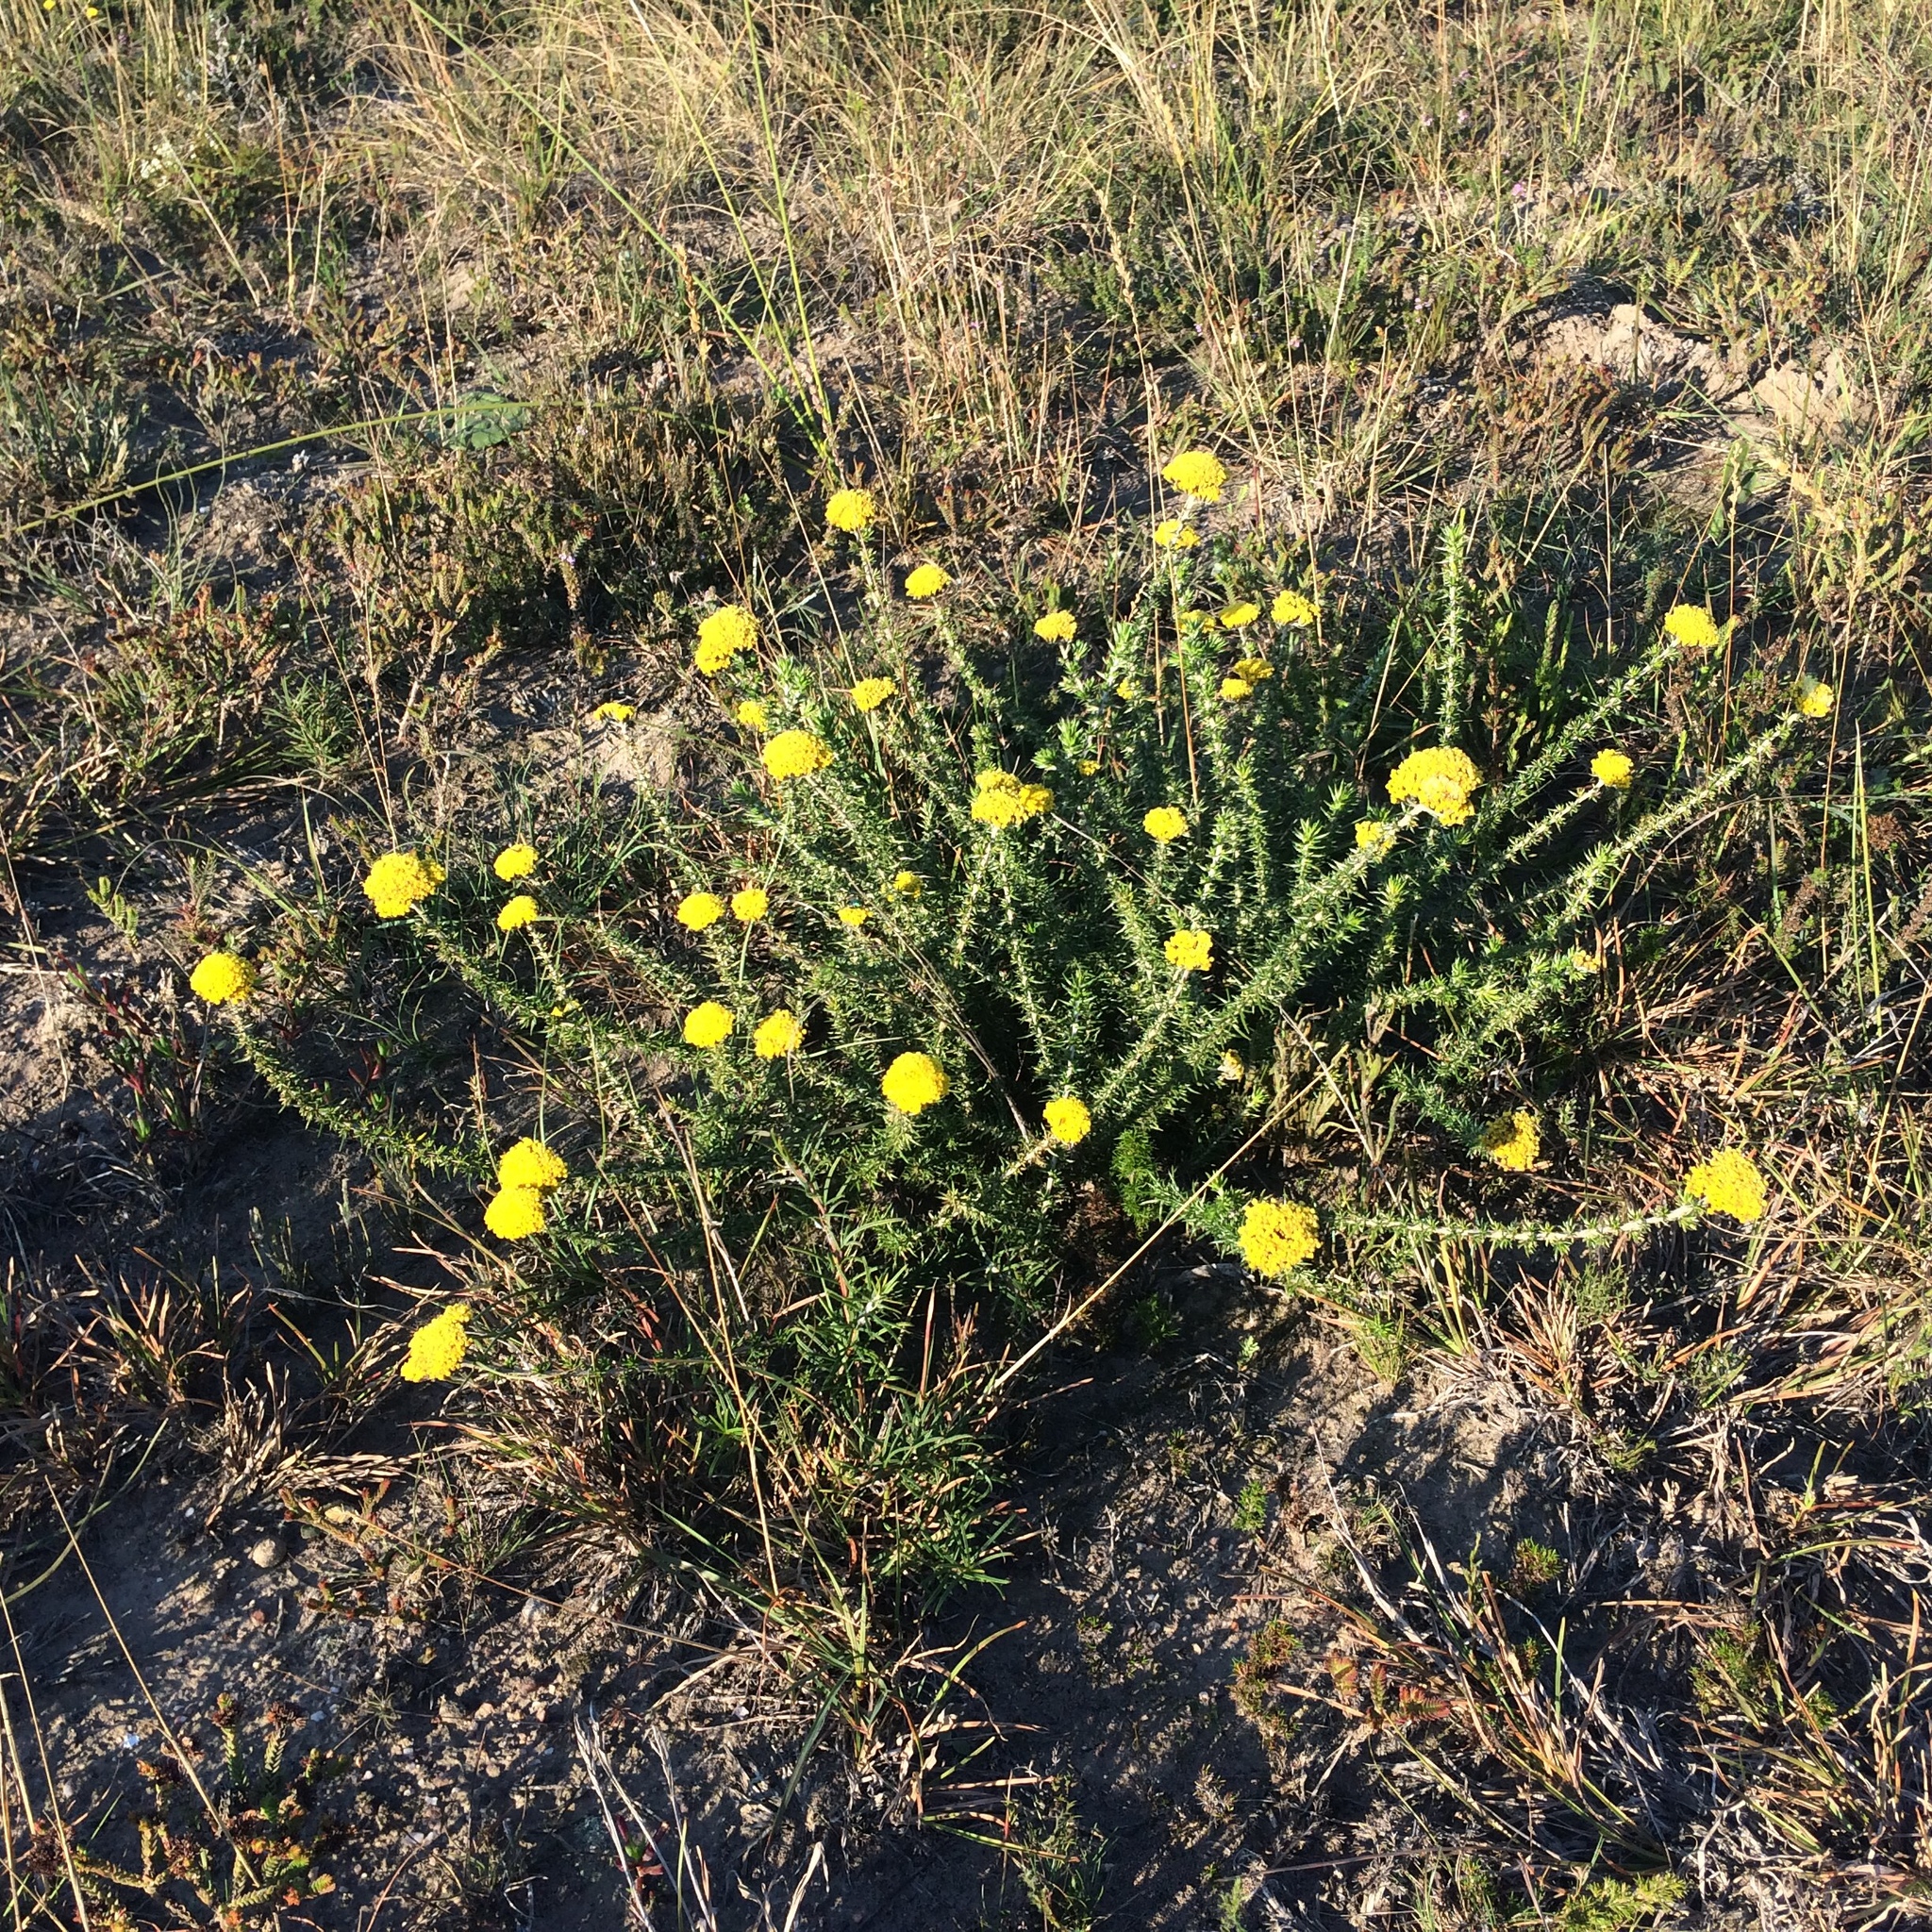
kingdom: Plantae
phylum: Tracheophyta
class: Magnoliopsida
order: Asterales
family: Asteraceae
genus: Metalasia
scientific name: Metalasia aurea
